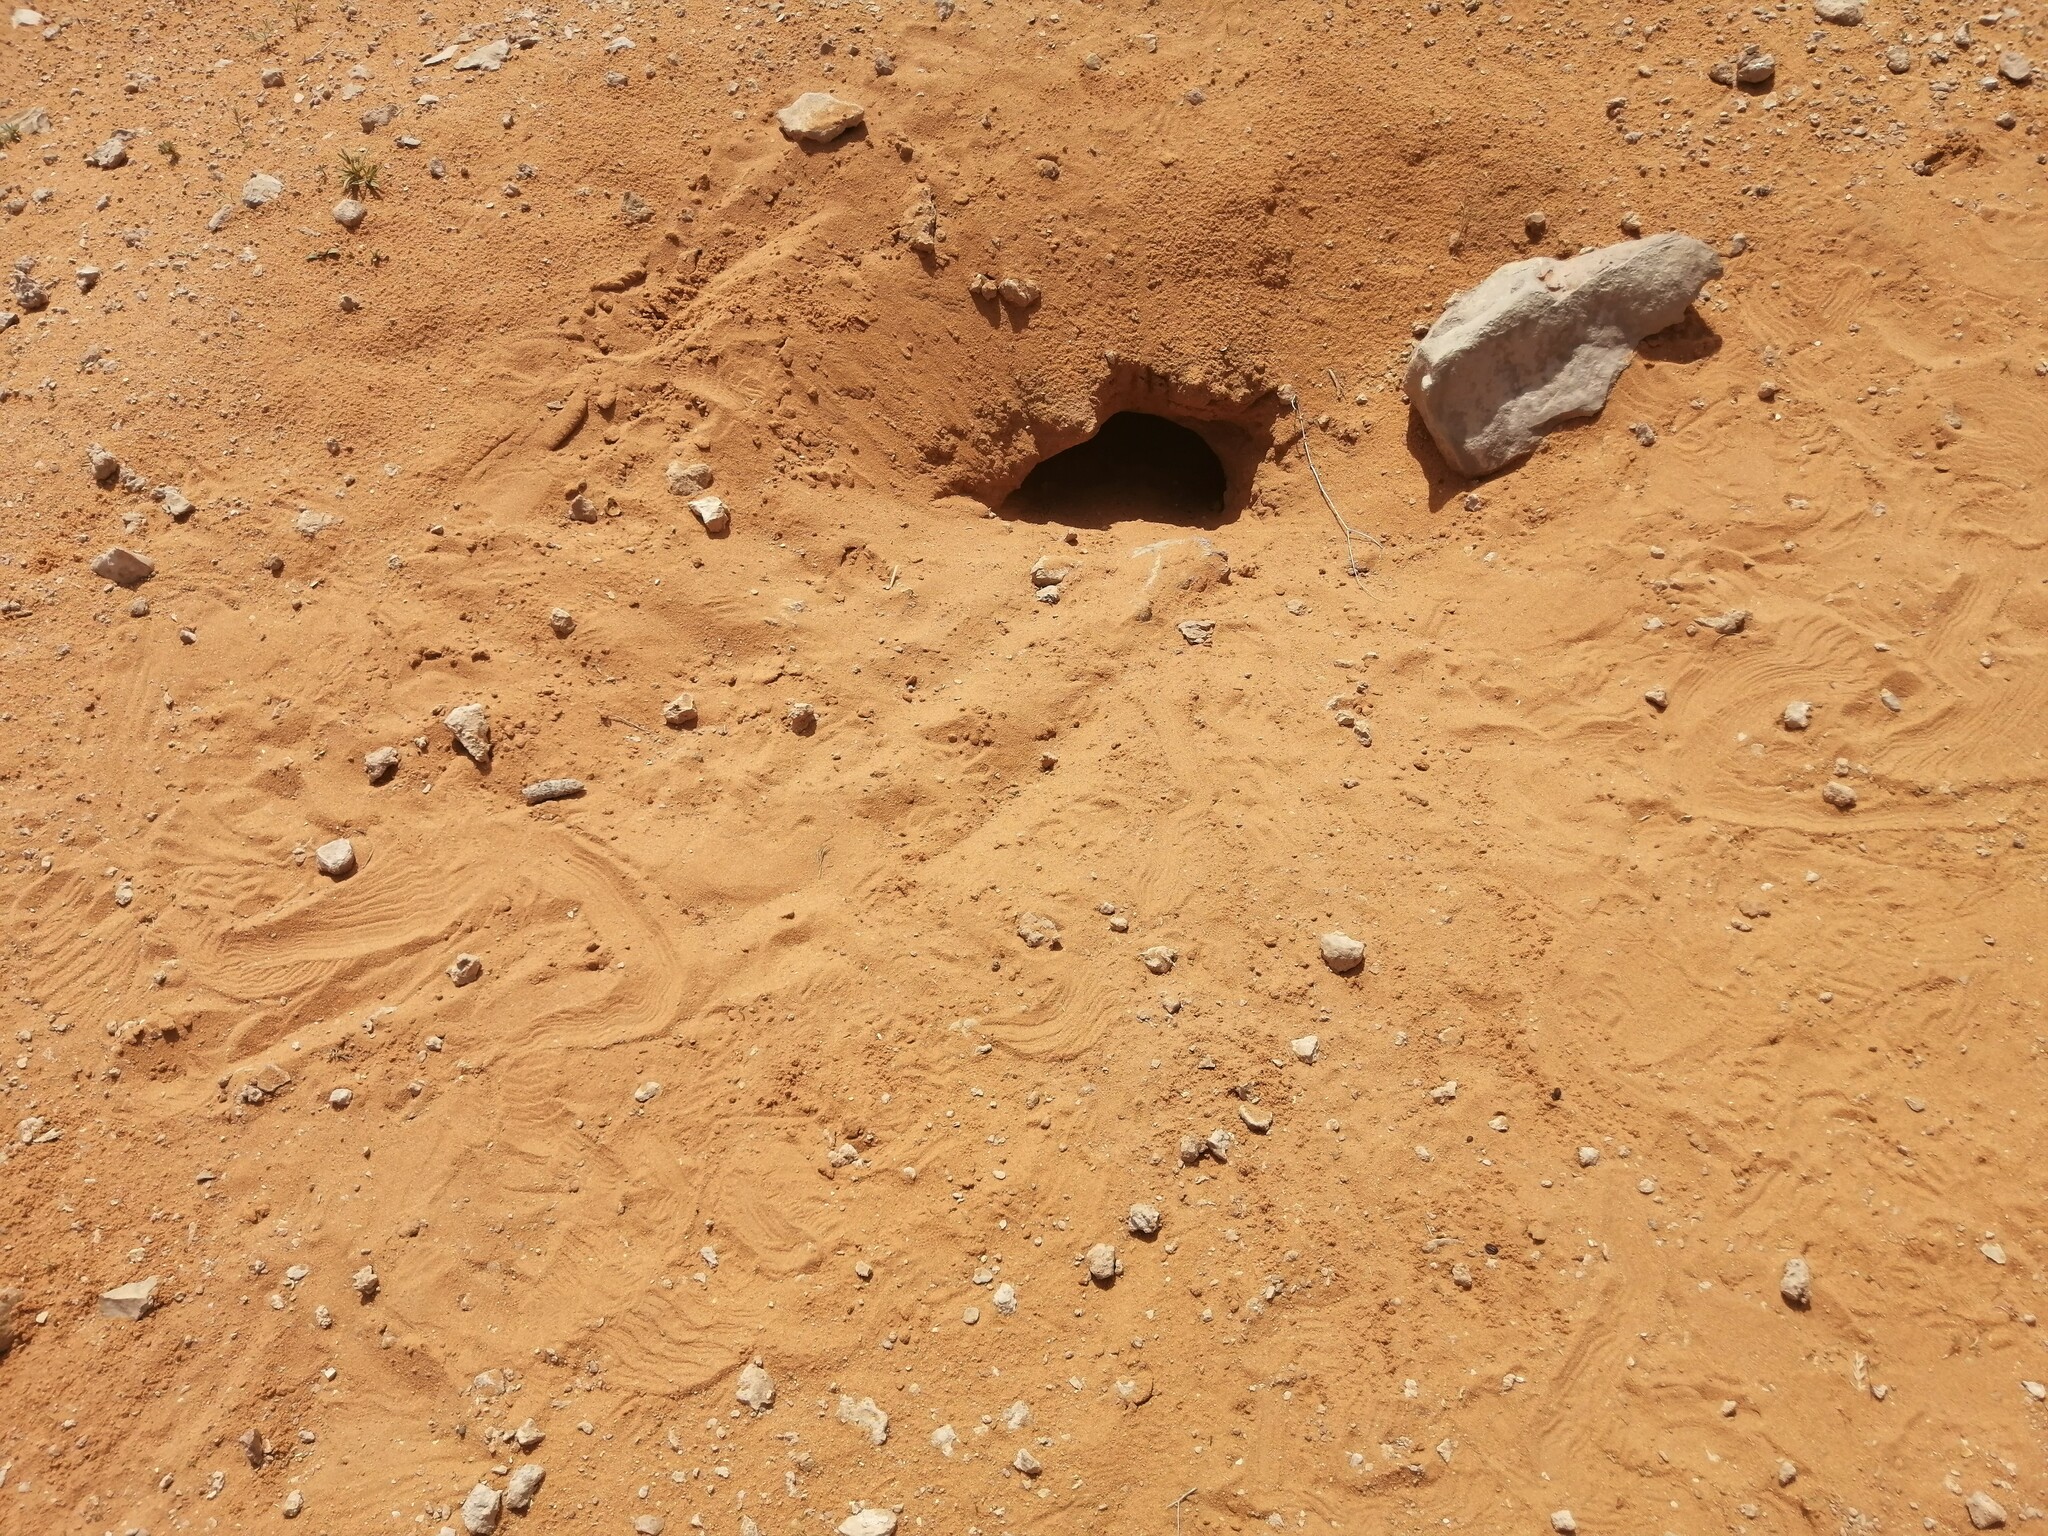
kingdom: Animalia
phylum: Chordata
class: Squamata
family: Agamidae
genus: Uromastyx
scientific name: Uromastyx aegyptia
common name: Egyptian mastigure
